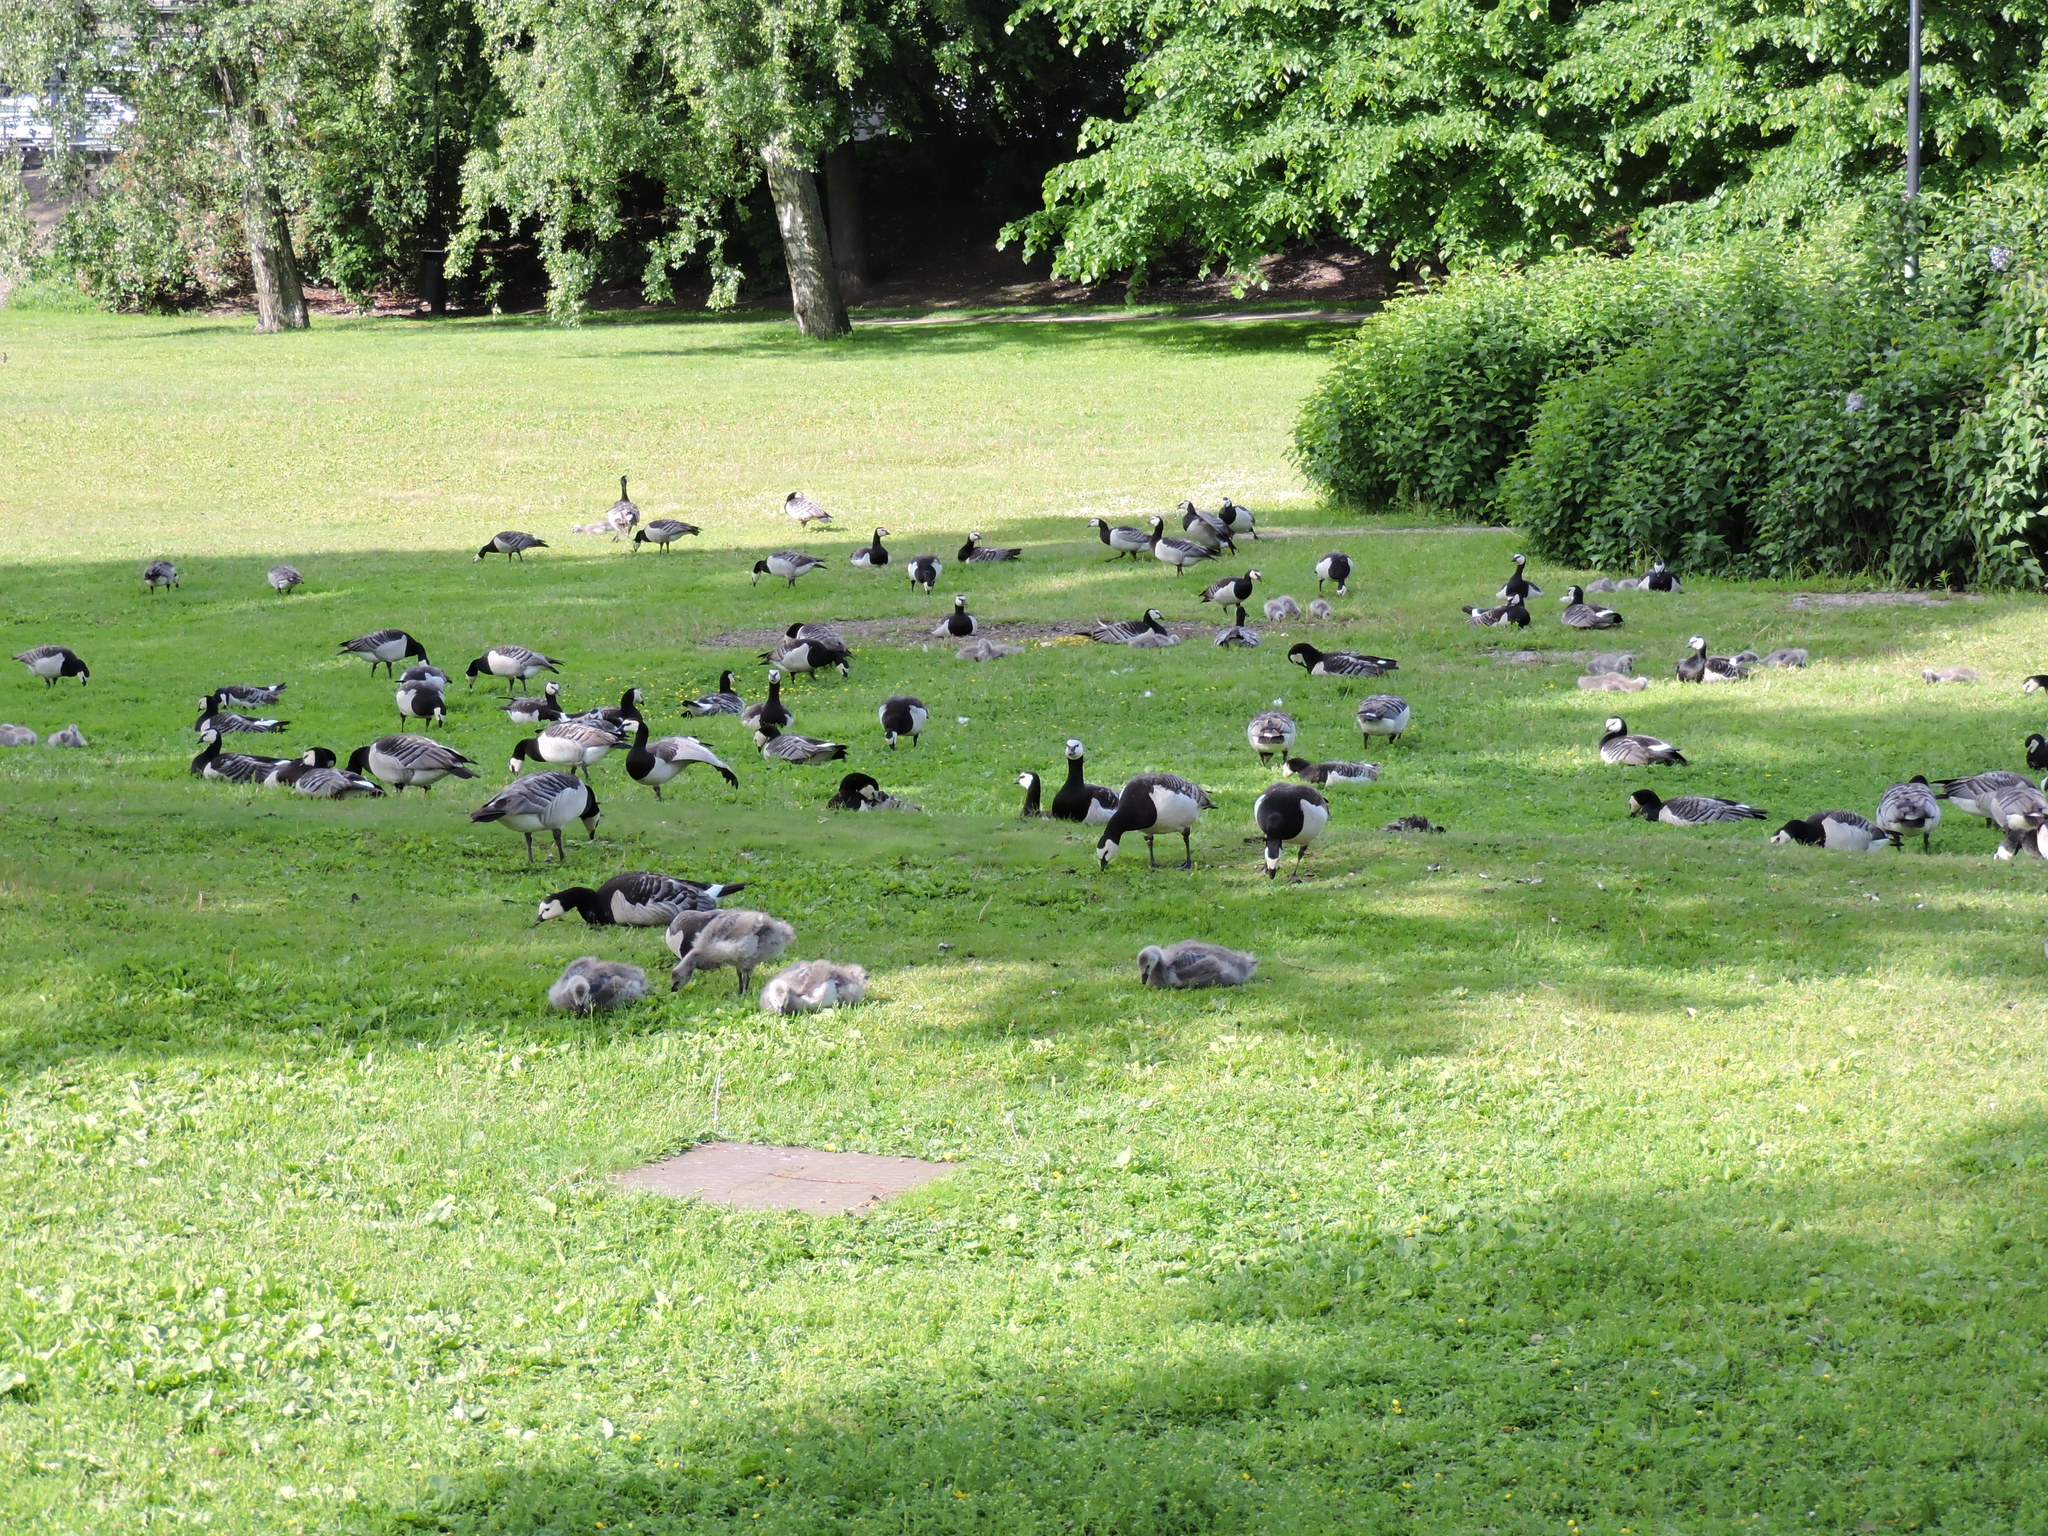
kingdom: Animalia
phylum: Chordata
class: Aves
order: Anseriformes
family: Anatidae
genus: Branta
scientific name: Branta leucopsis
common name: Barnacle goose
